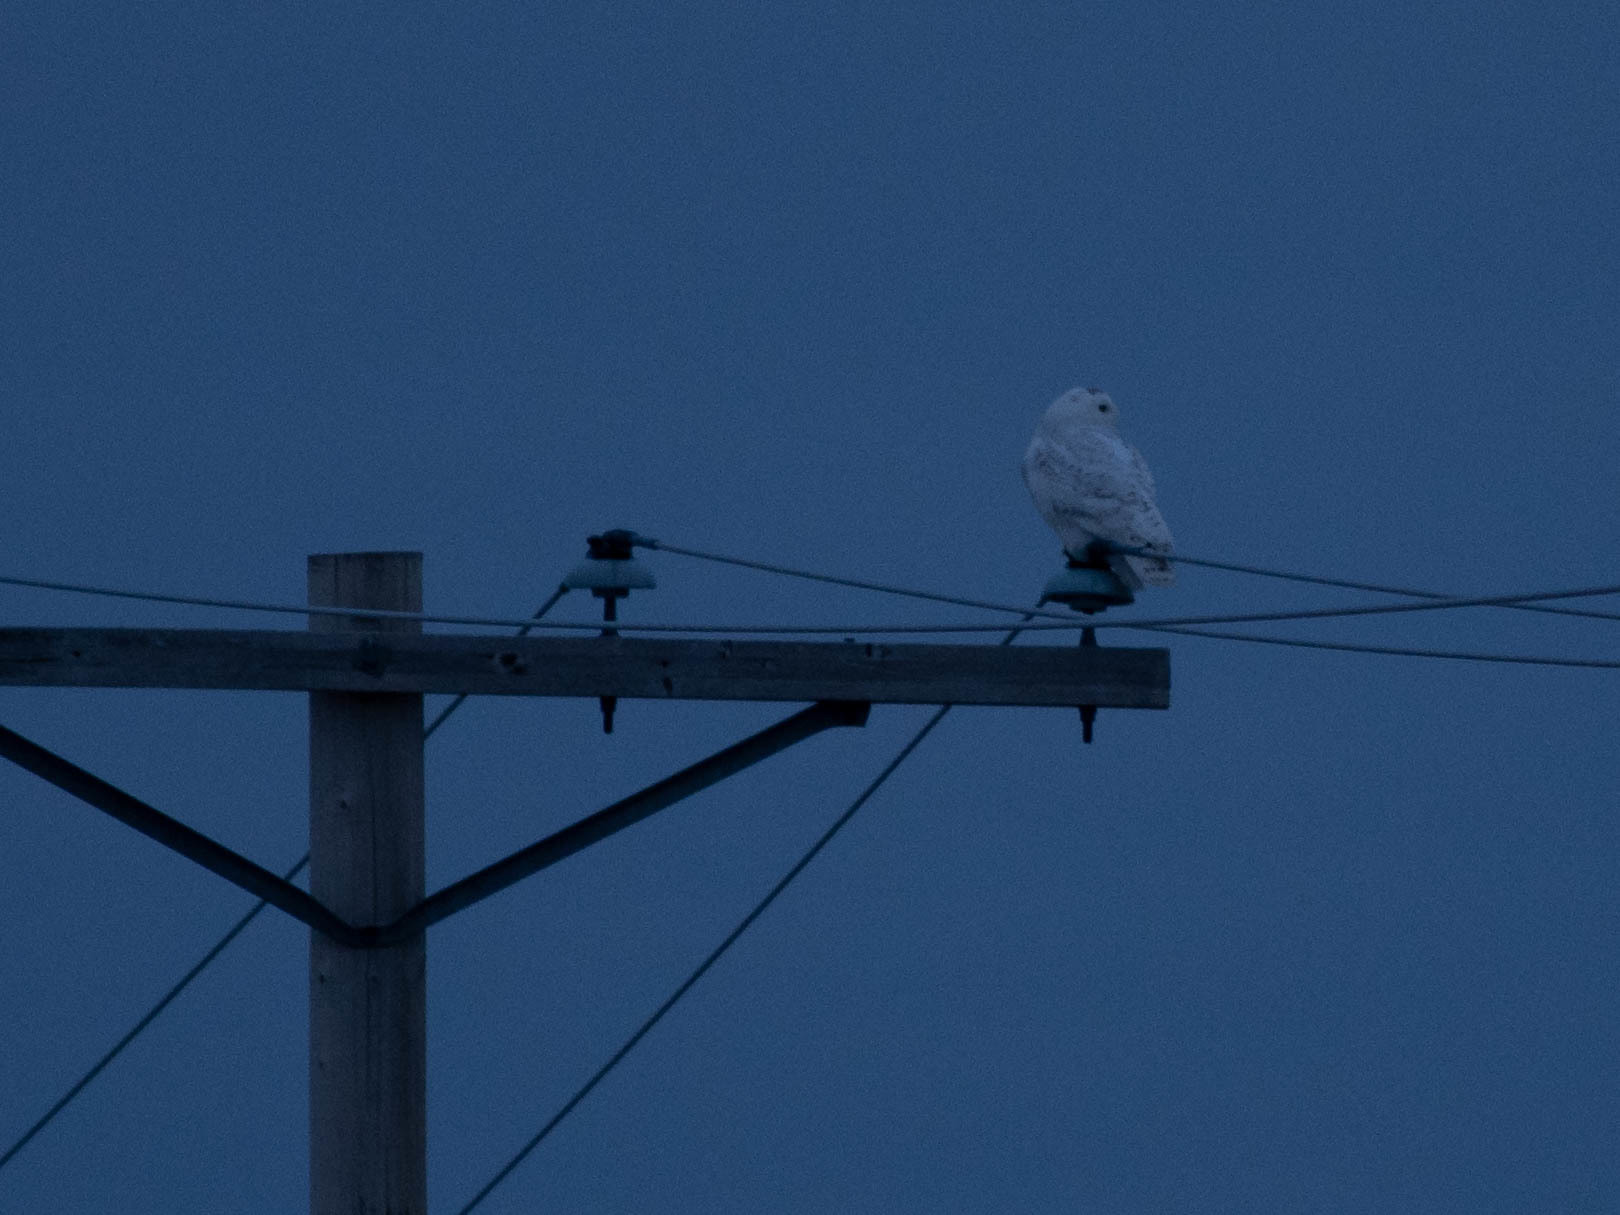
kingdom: Animalia
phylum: Chordata
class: Aves
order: Strigiformes
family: Strigidae
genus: Bubo
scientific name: Bubo scandiacus
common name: Snowy owl
